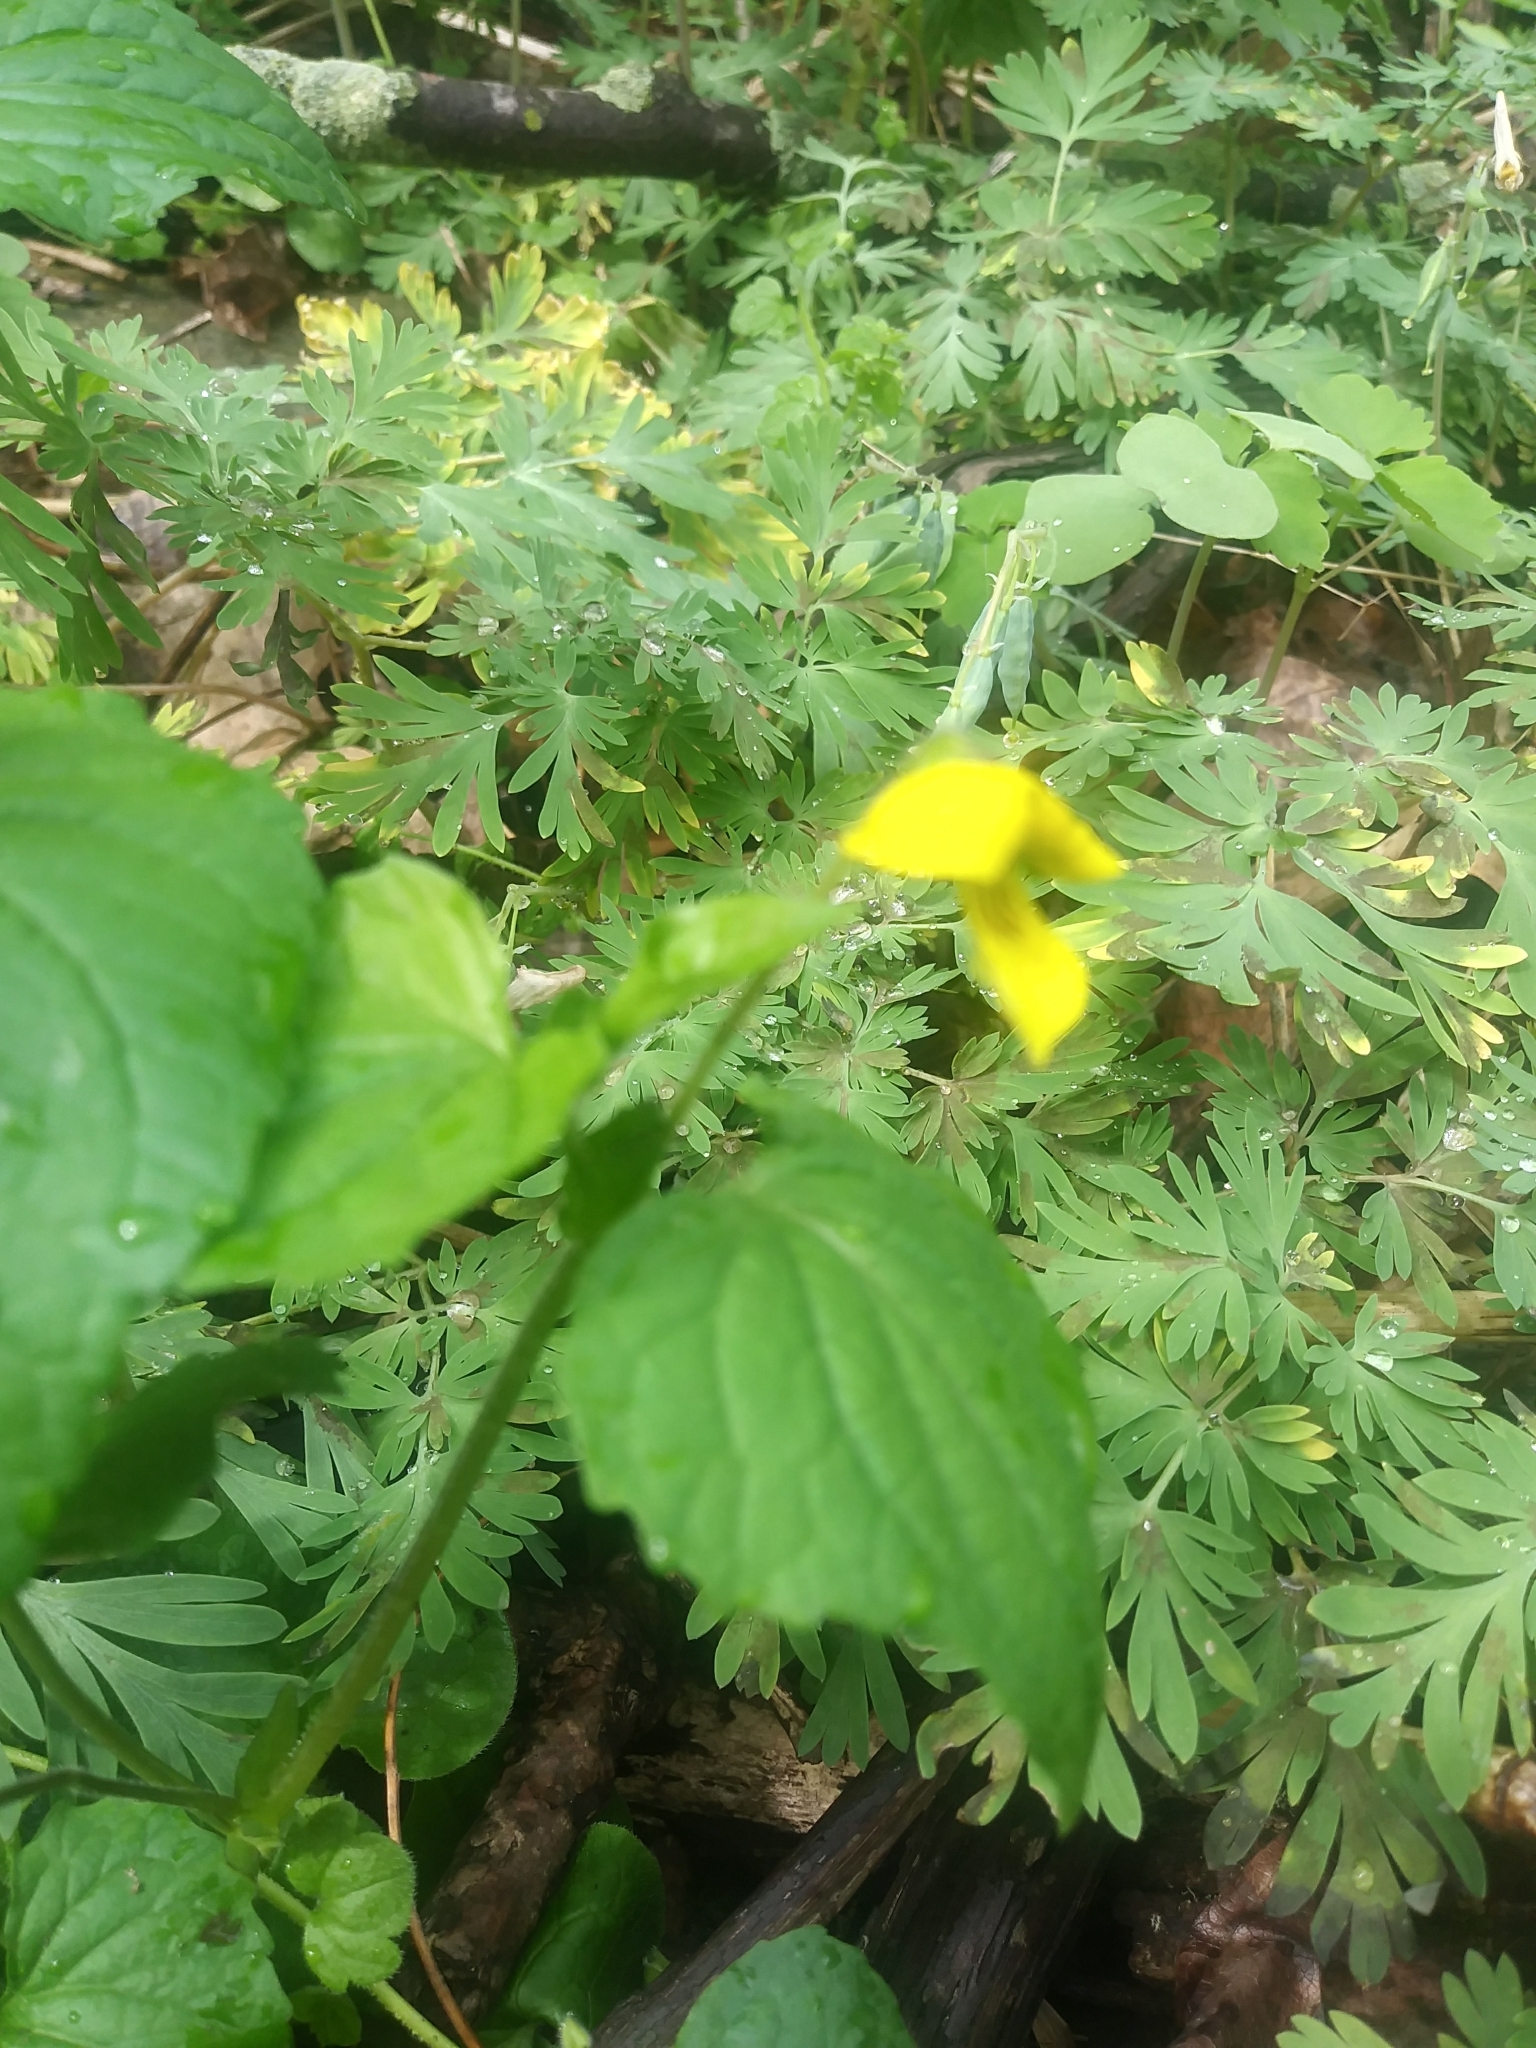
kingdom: Plantae
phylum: Tracheophyta
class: Magnoliopsida
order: Malpighiales
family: Violaceae
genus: Viola
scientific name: Viola eriocarpa
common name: Smooth yellow violet
